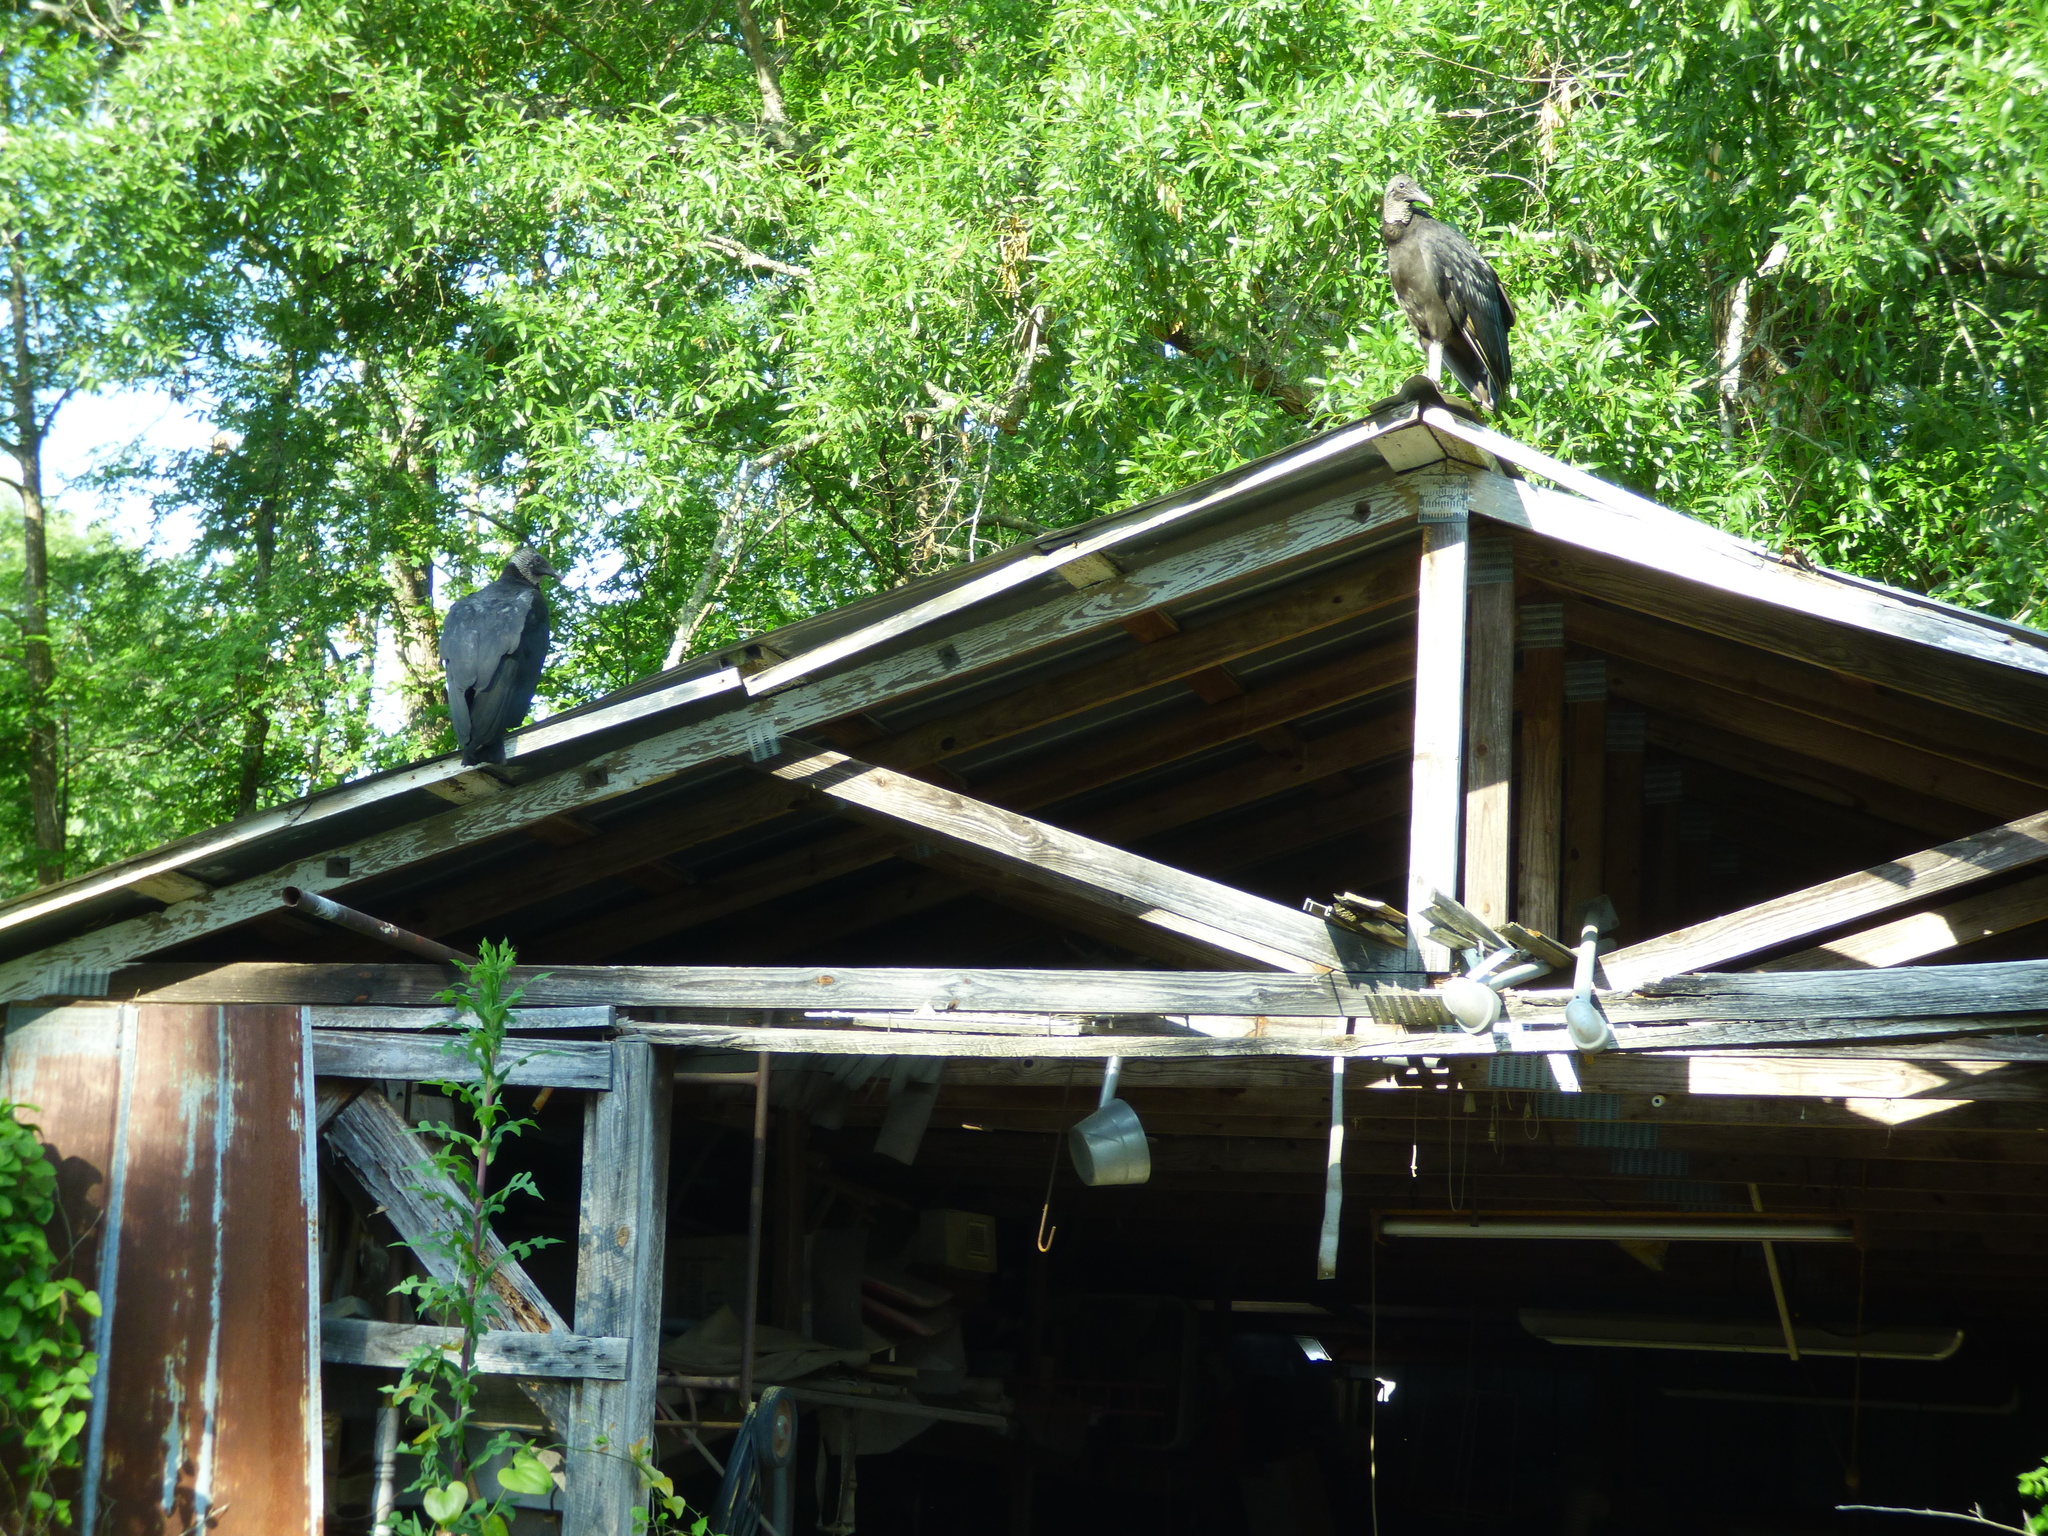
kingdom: Animalia
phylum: Chordata
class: Aves
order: Accipitriformes
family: Cathartidae
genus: Coragyps
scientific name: Coragyps atratus
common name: Black vulture
